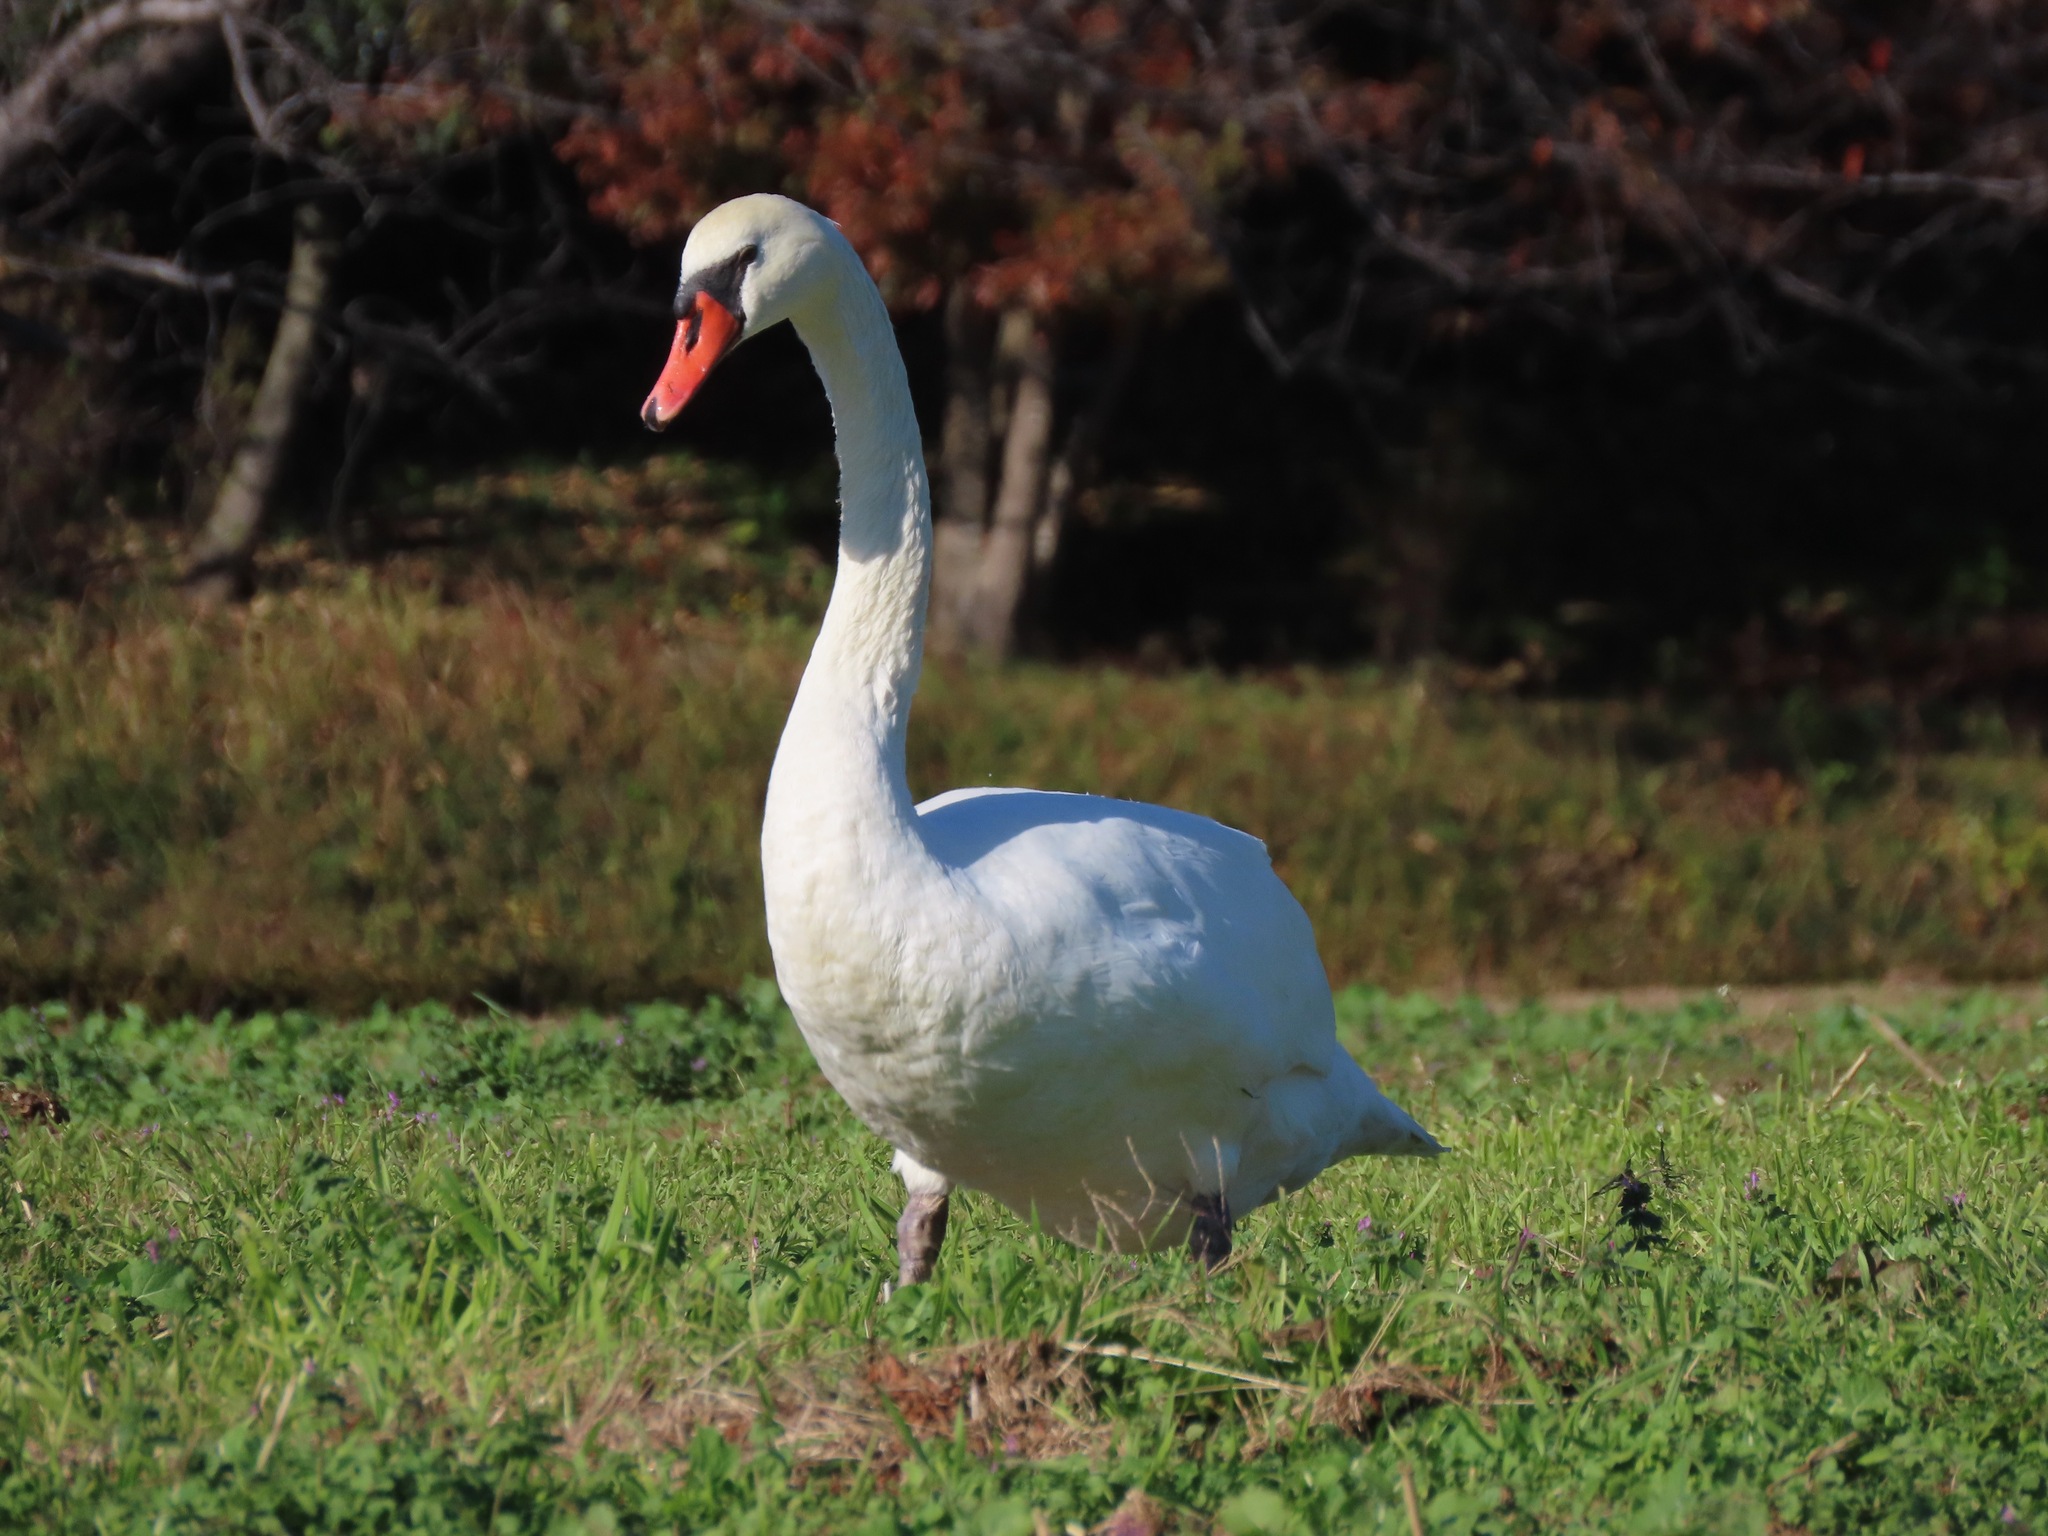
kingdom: Animalia
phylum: Chordata
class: Aves
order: Anseriformes
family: Anatidae
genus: Cygnus
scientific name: Cygnus olor
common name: Mute swan
